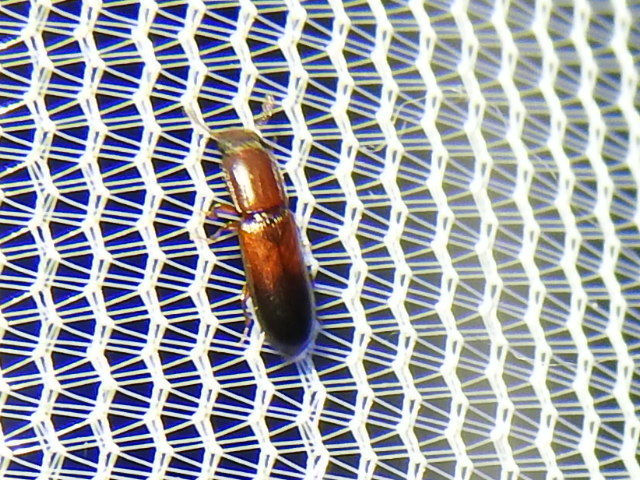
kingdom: Animalia
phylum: Arthropoda
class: Insecta
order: Coleoptera
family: Zopheridae
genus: Aulonium
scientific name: Aulonium tuberculatum
